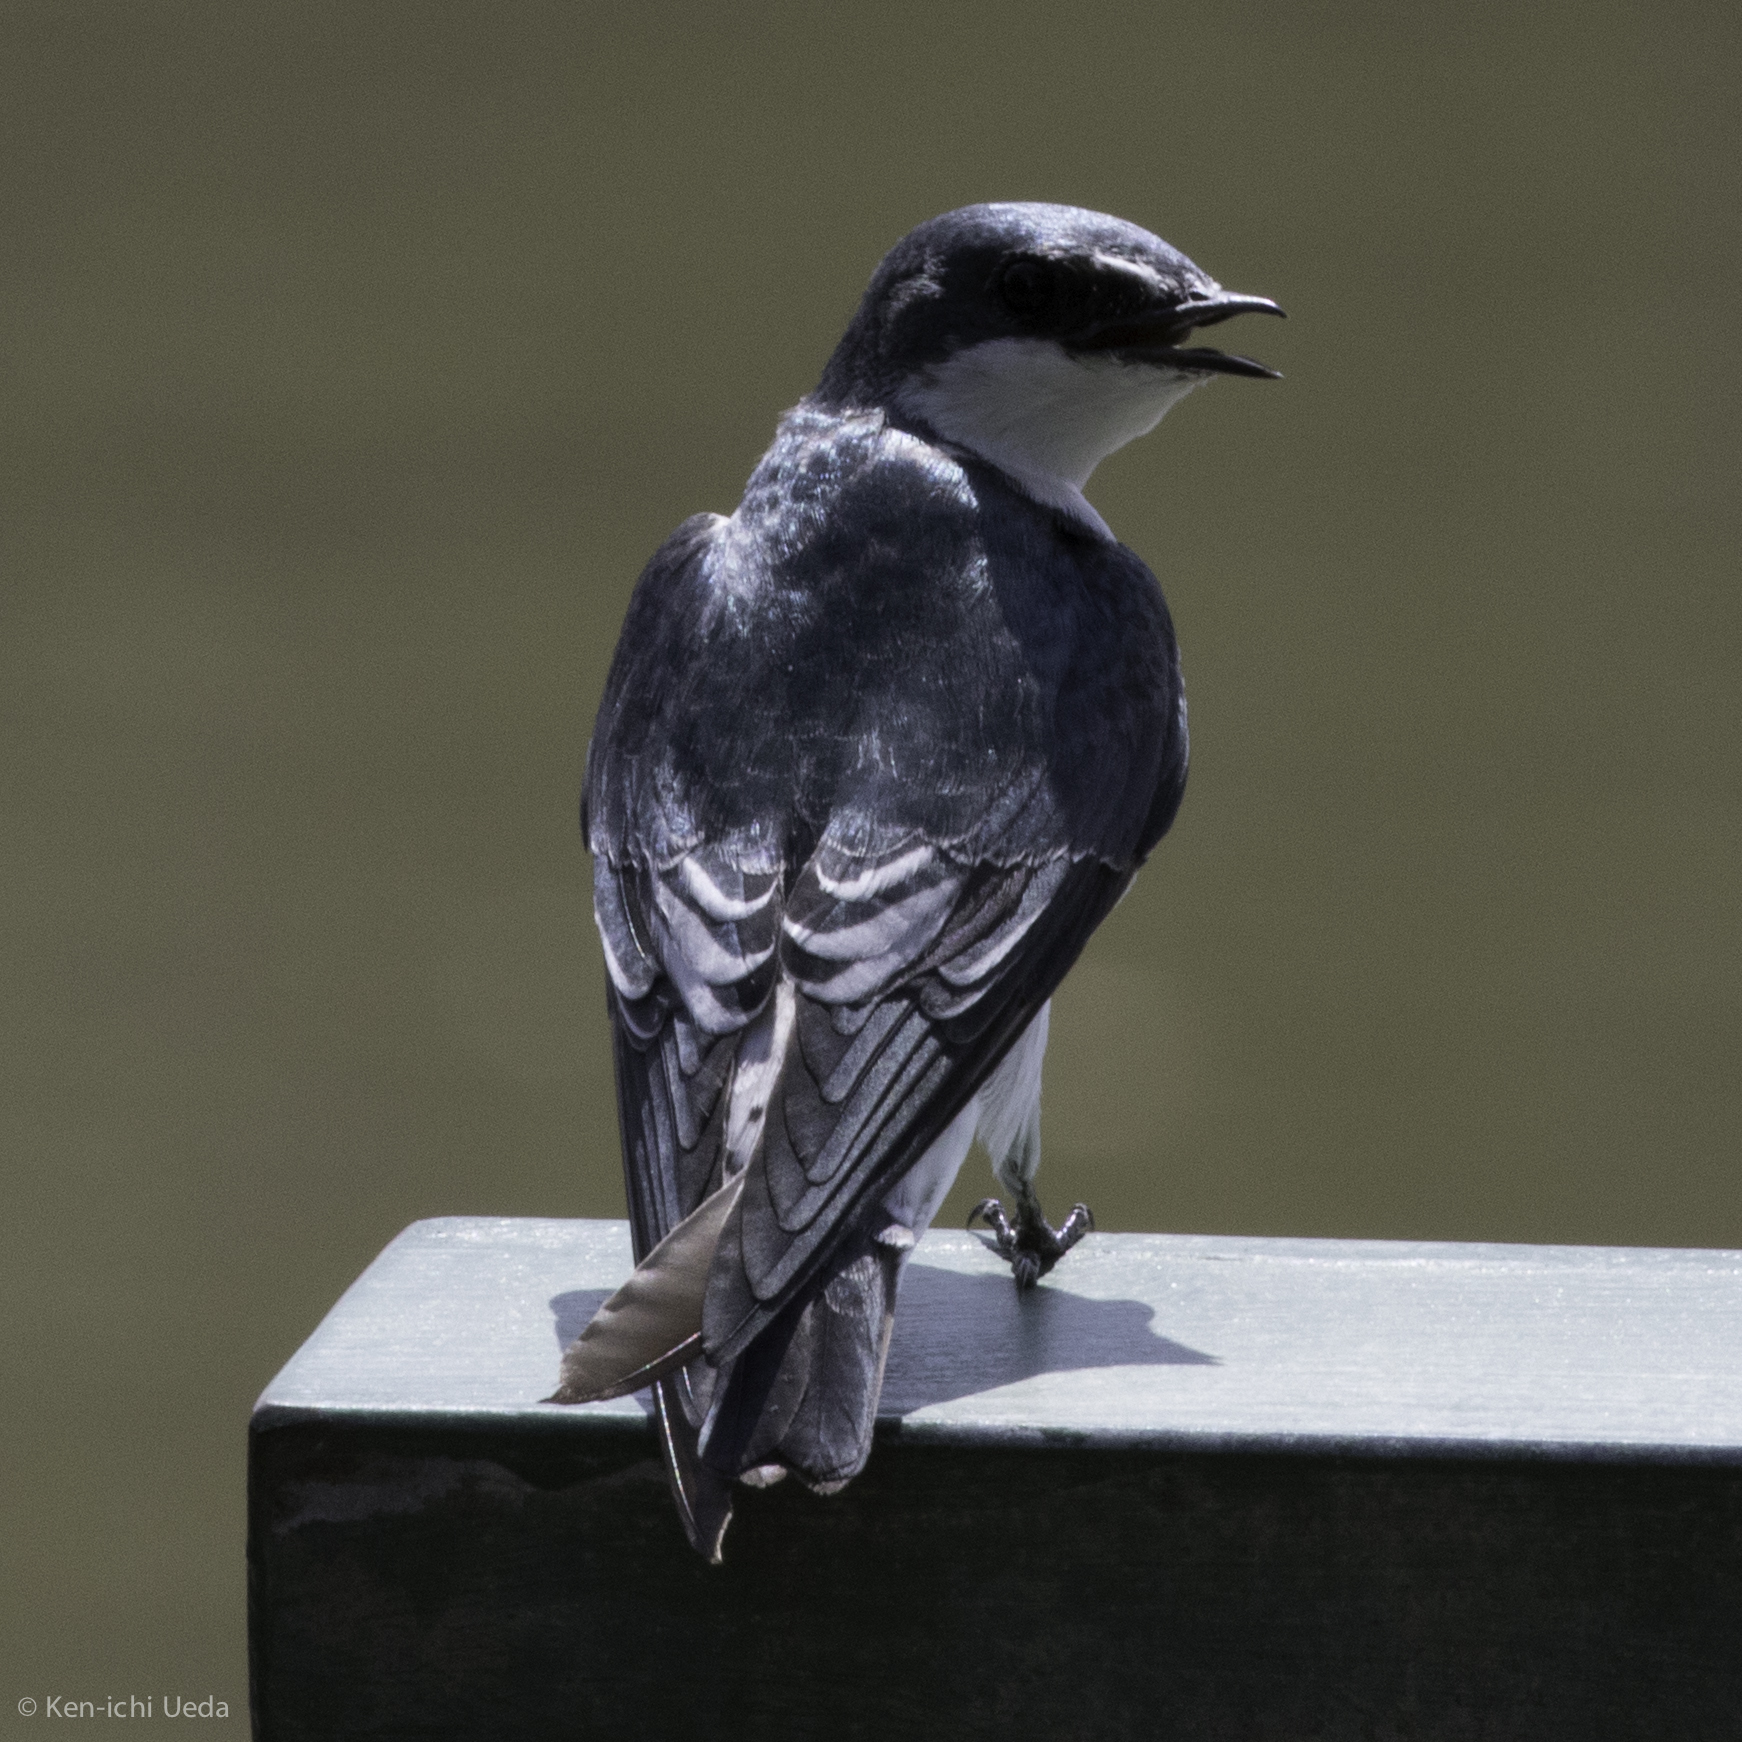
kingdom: Animalia
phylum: Chordata
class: Aves
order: Passeriformes
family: Hirundinidae
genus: Tachycineta
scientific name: Tachycineta albilinea
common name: Mangrove swallow
